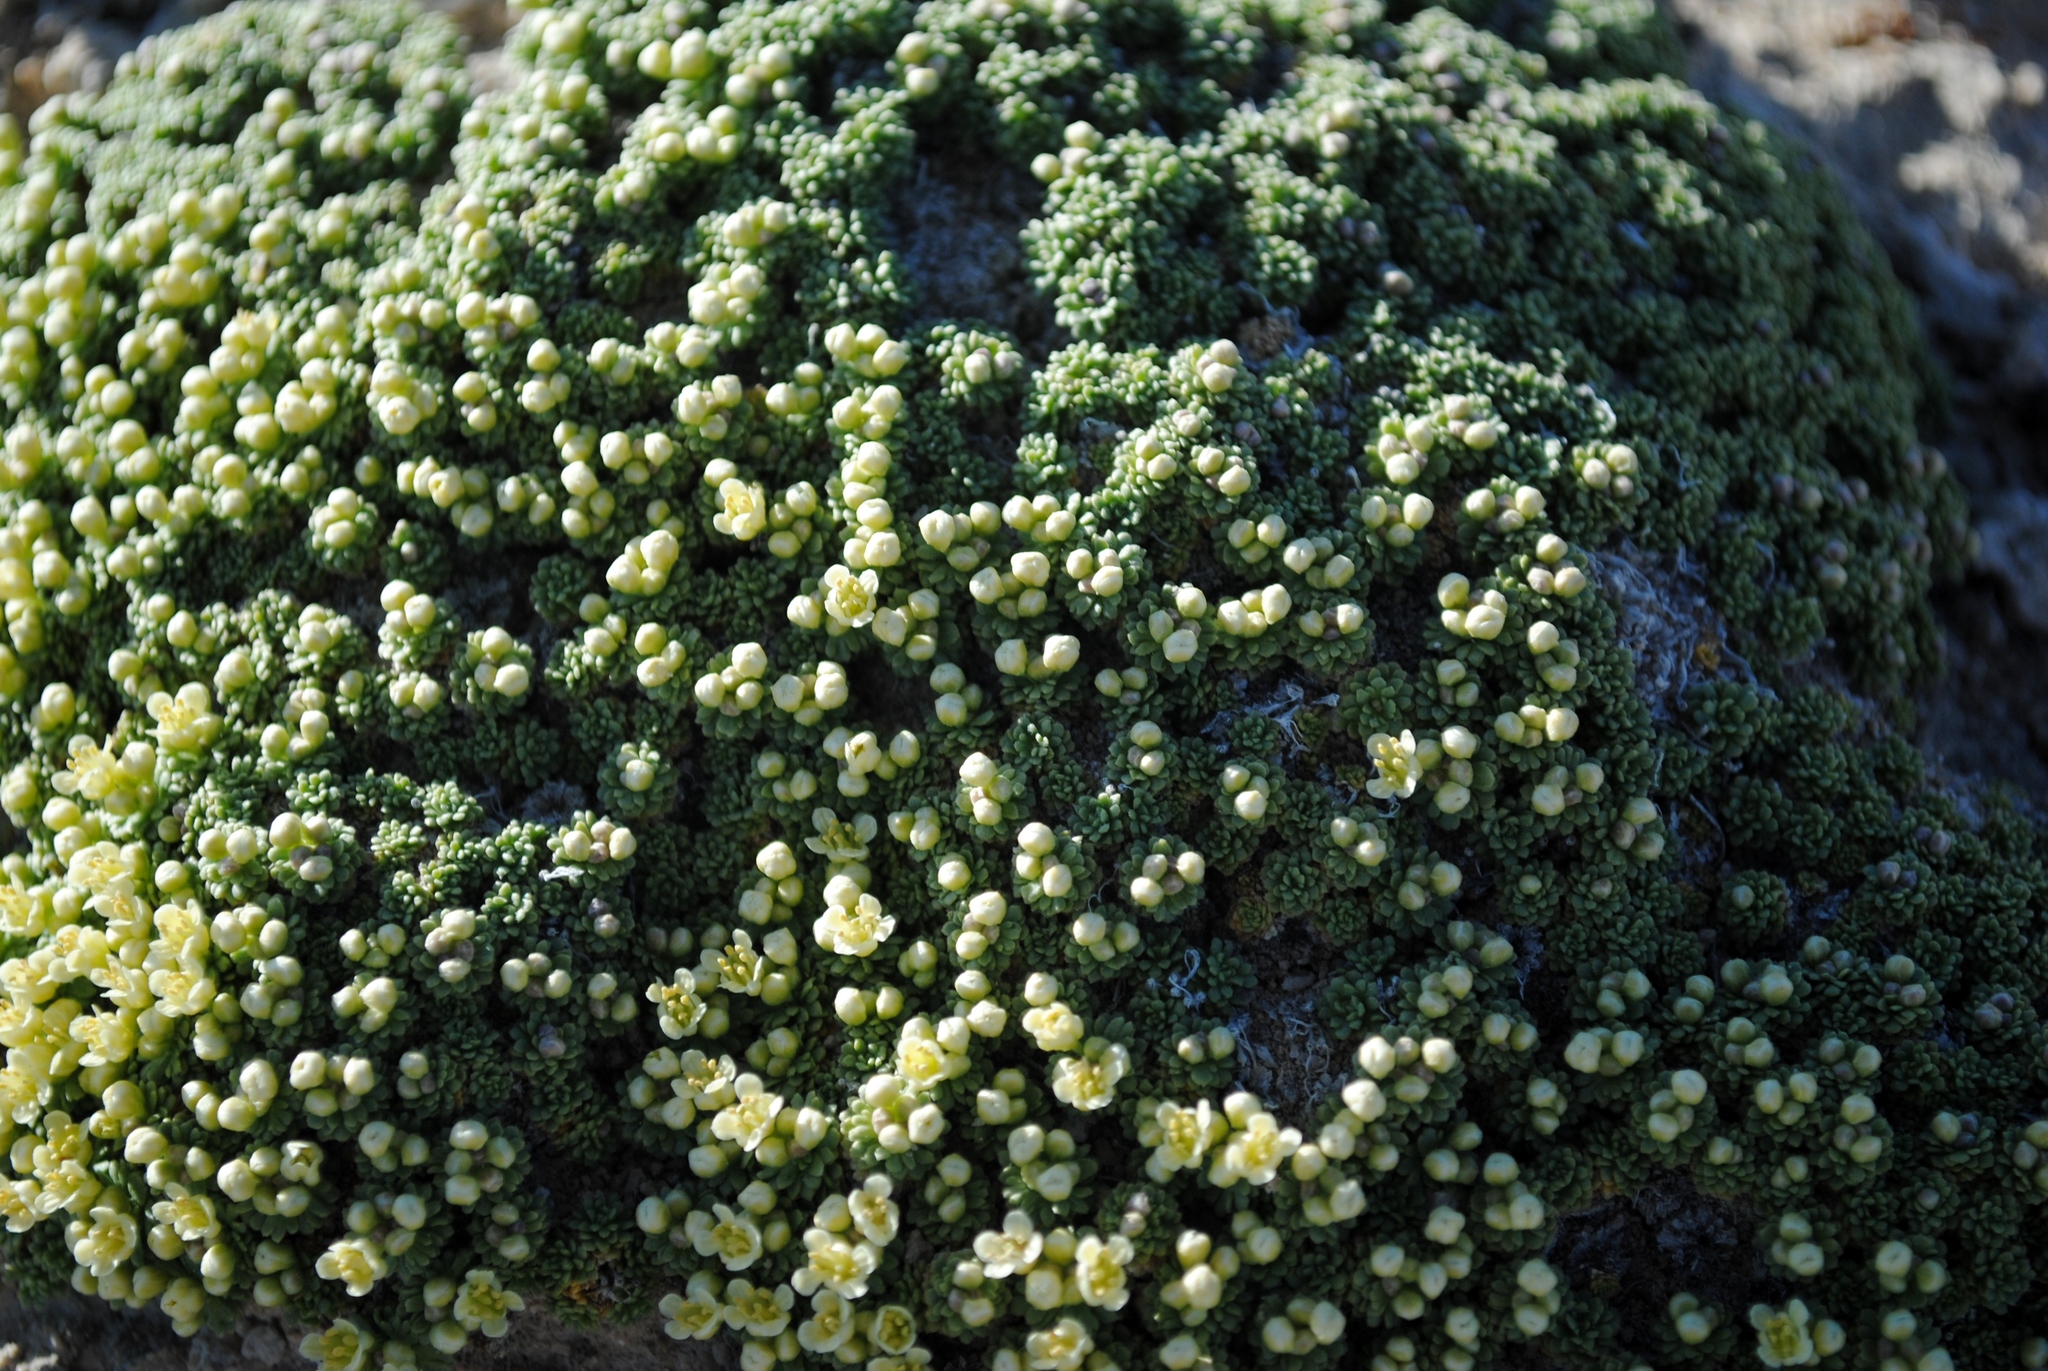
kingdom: Plantae
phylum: Tracheophyta
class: Magnoliopsida
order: Brassicales
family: Brassicaceae
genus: Lepidium
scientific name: Lepidium nanum
